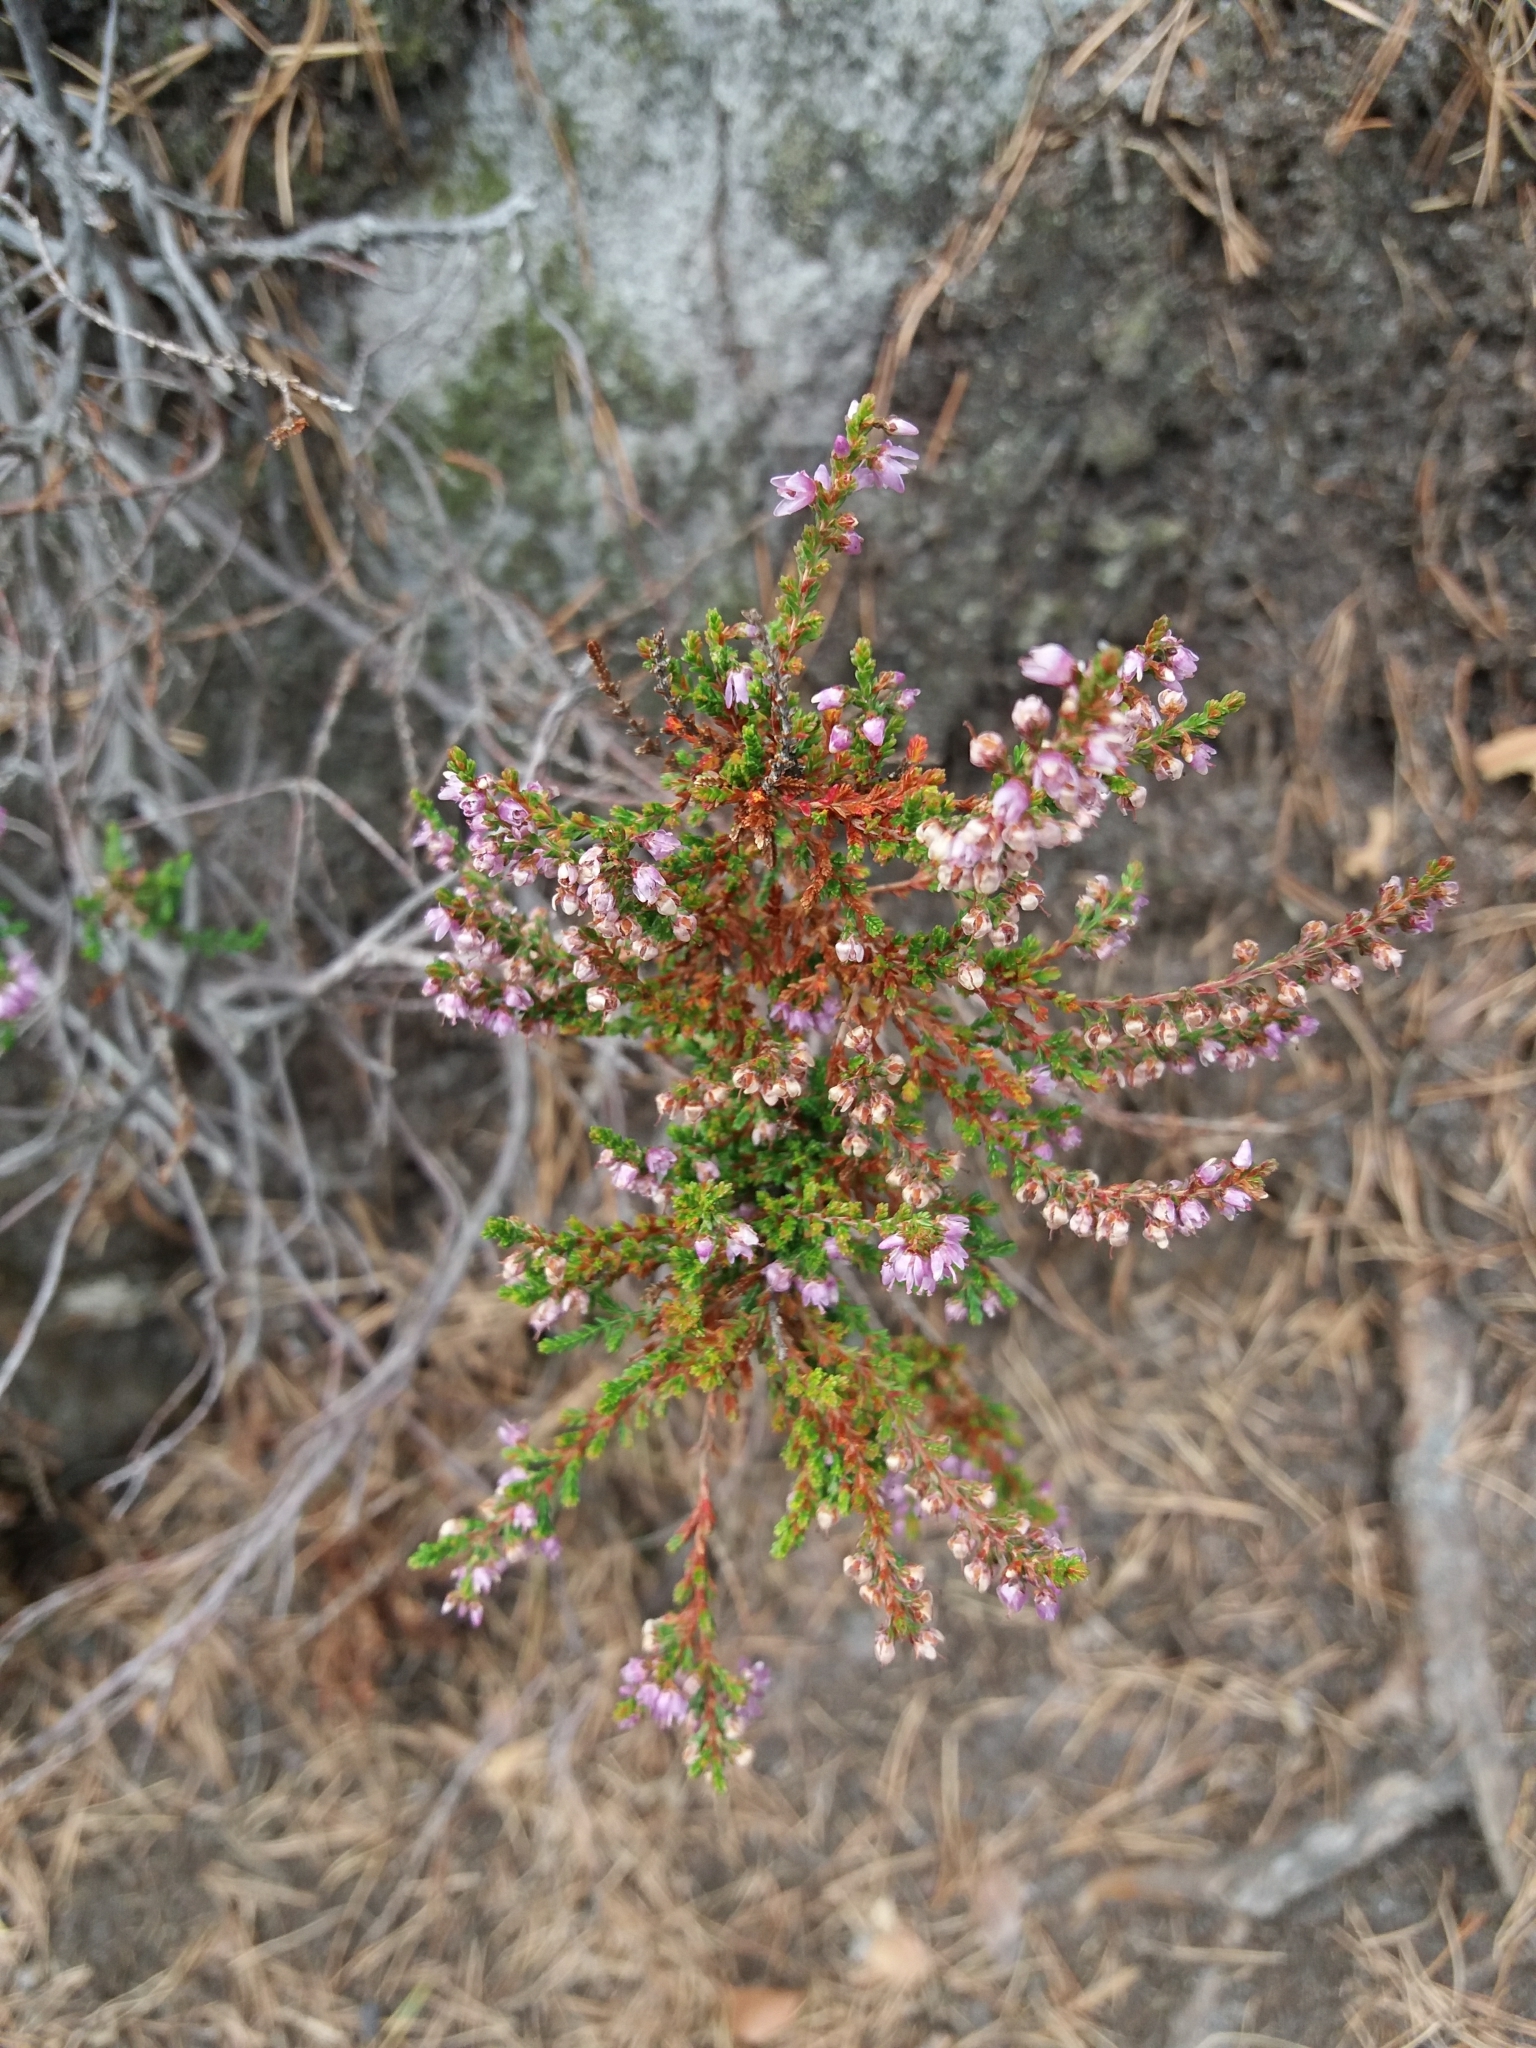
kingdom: Plantae
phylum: Tracheophyta
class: Magnoliopsida
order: Ericales
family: Ericaceae
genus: Calluna
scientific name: Calluna vulgaris
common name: Heather
